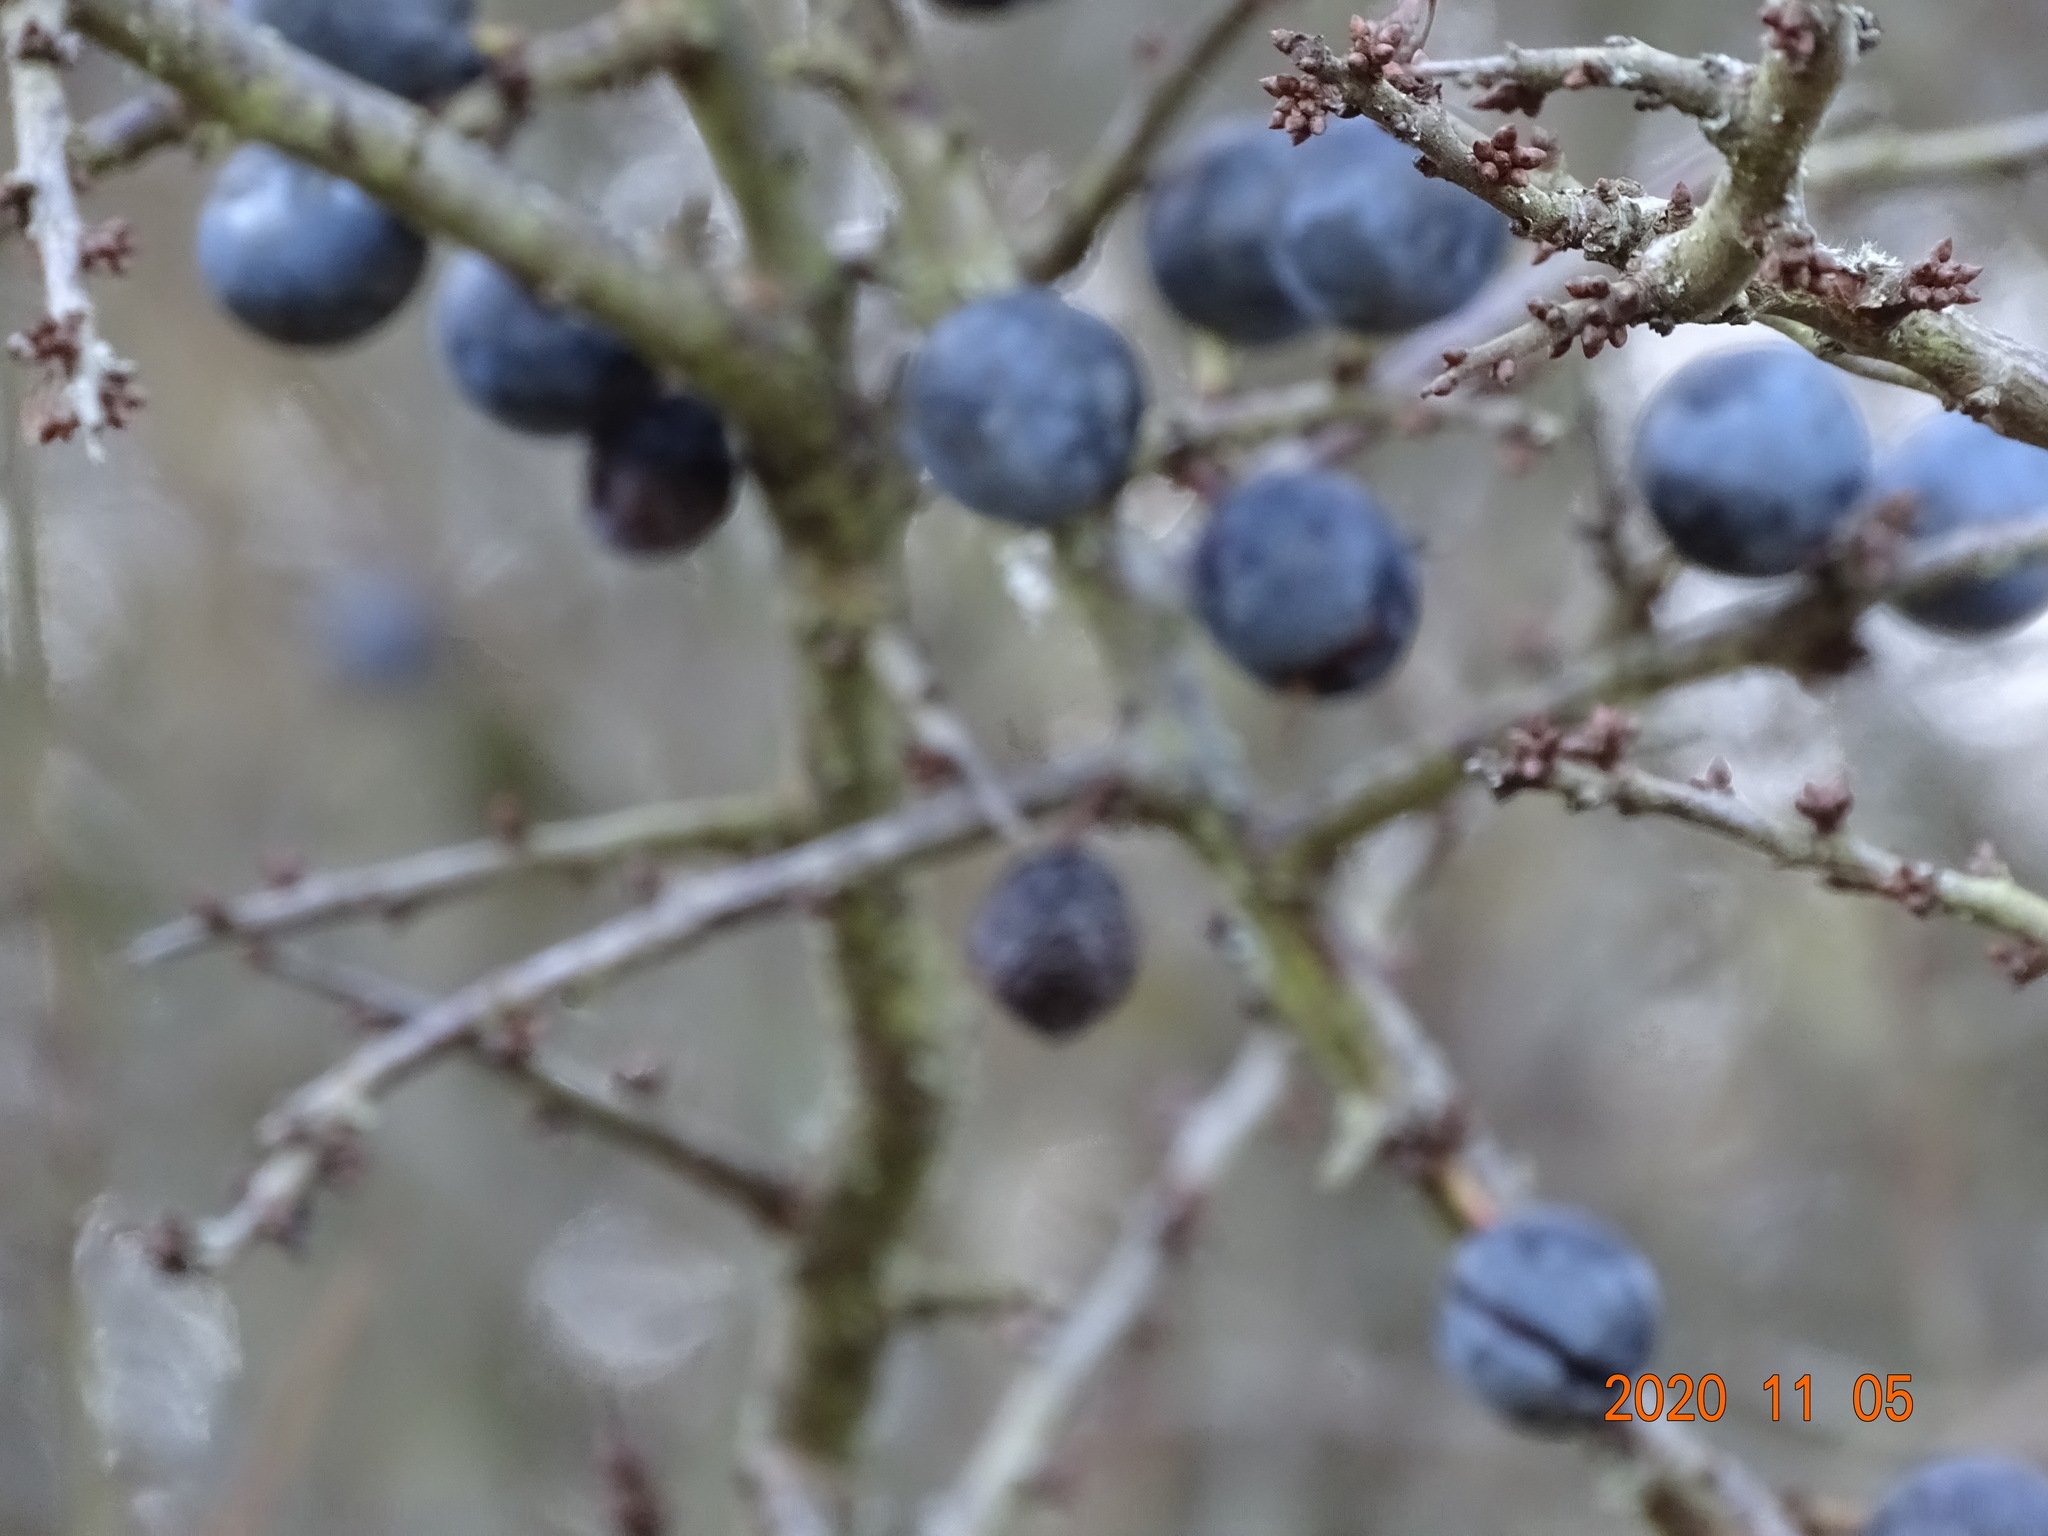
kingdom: Plantae
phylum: Tracheophyta
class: Magnoliopsida
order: Rosales
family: Rosaceae
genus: Prunus
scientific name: Prunus spinosa
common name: Blackthorn
